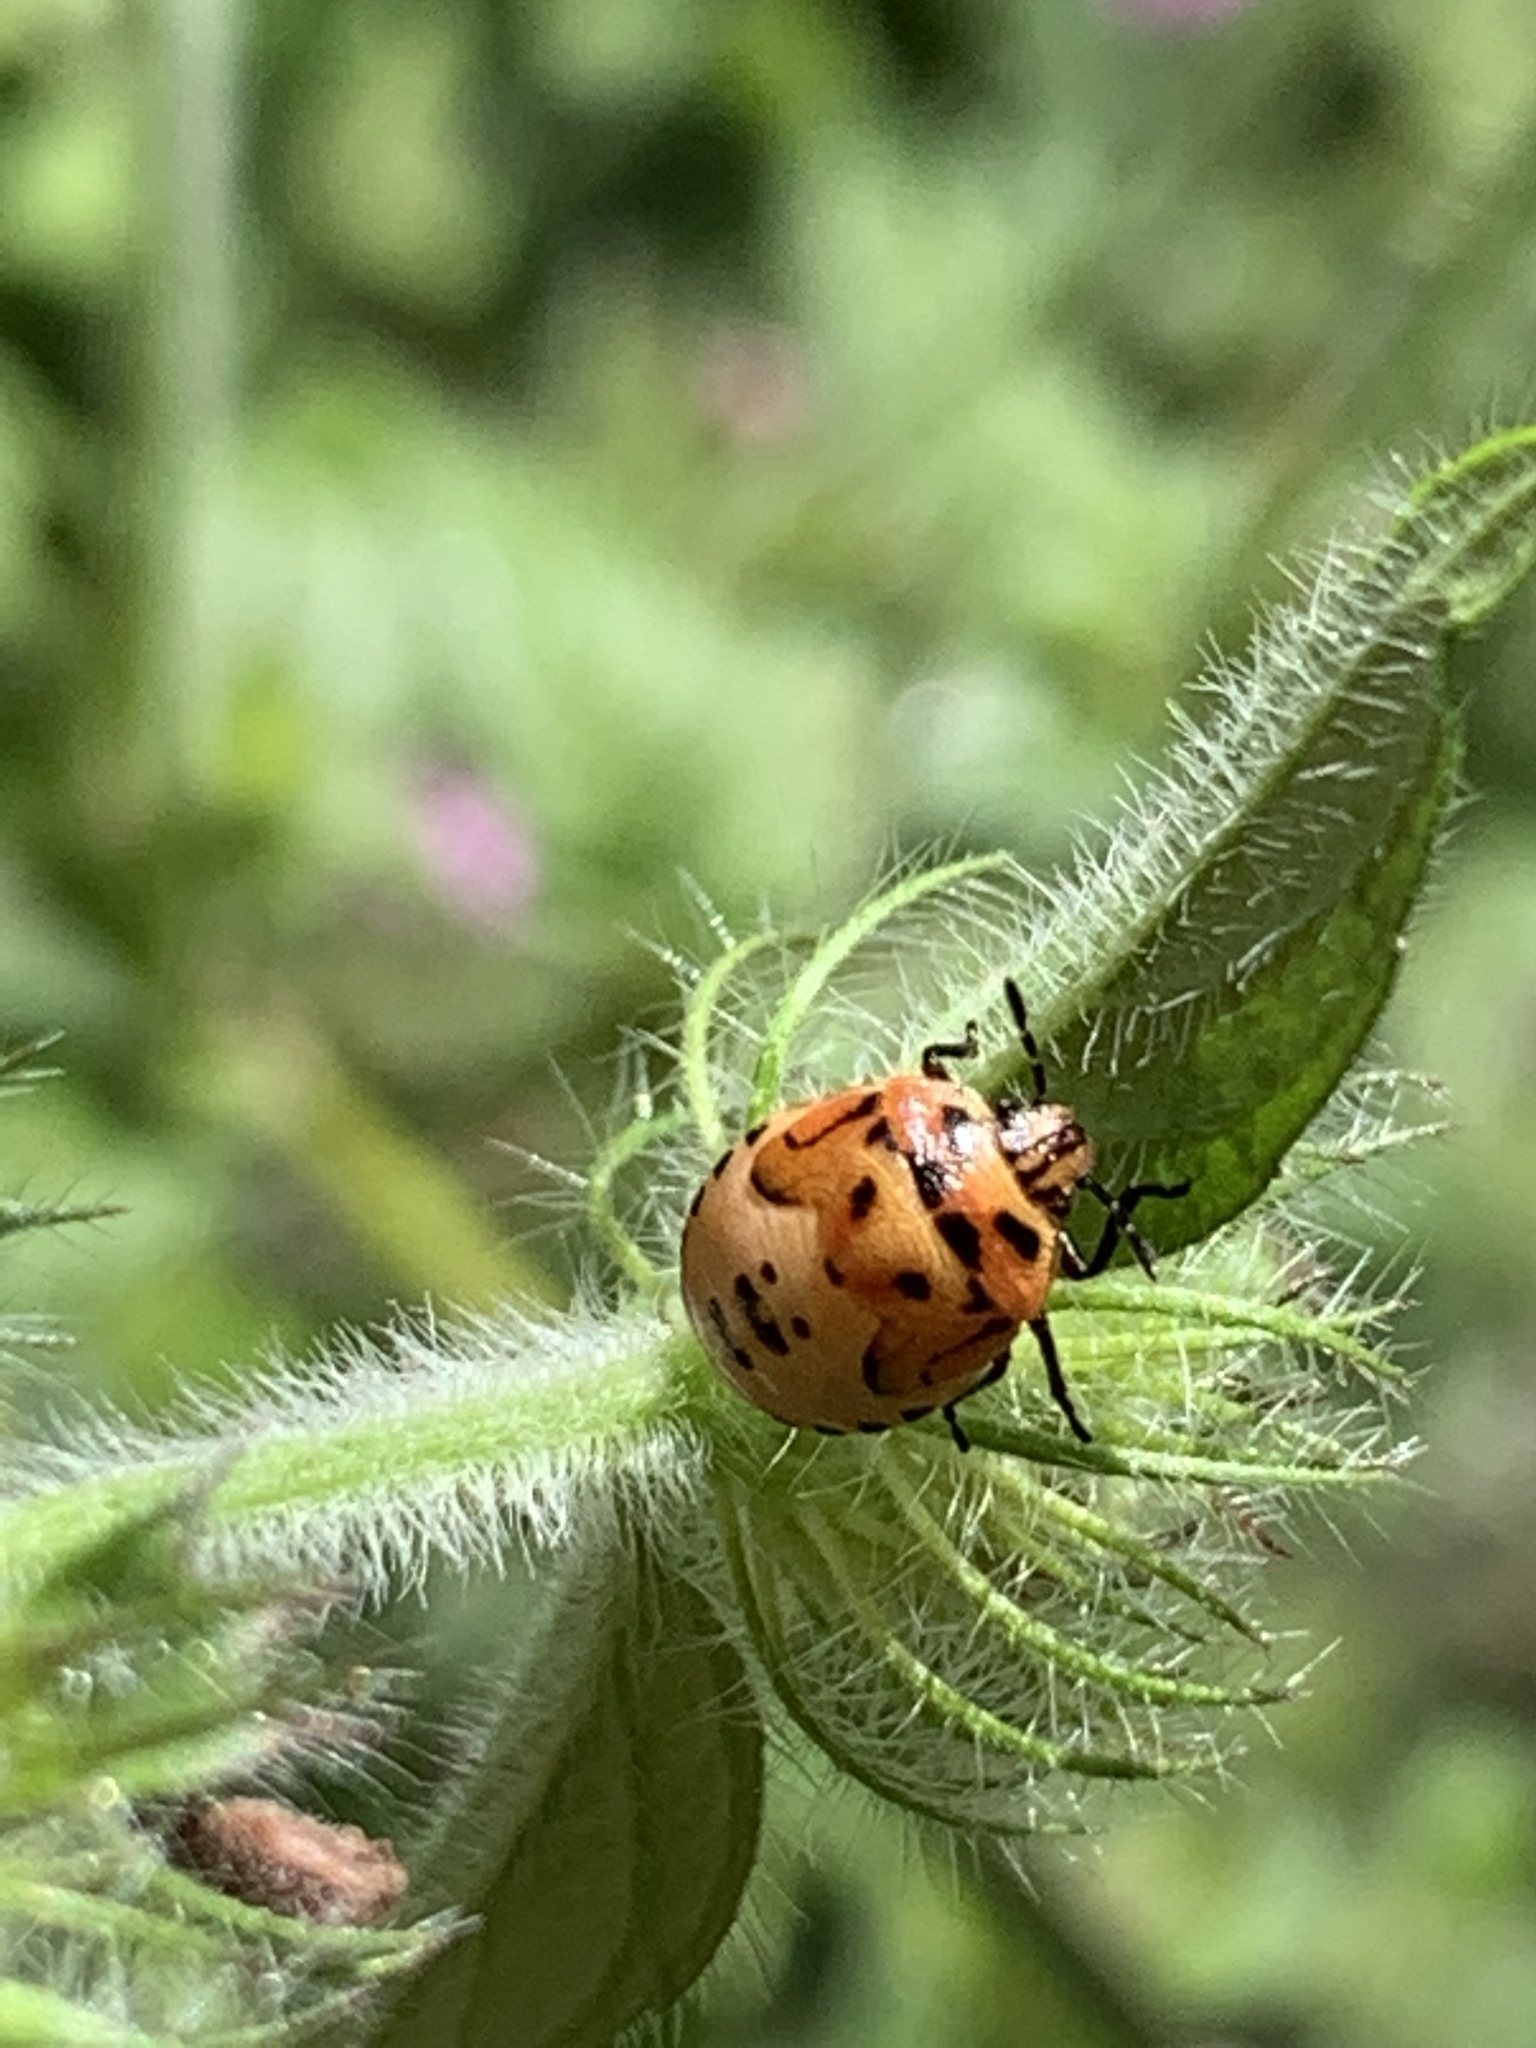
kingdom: Animalia
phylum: Arthropoda
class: Insecta
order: Hemiptera
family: Pentatomidae
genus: Cosmopepla
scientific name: Cosmopepla lintneriana
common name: Twice-stabbed stink bug
